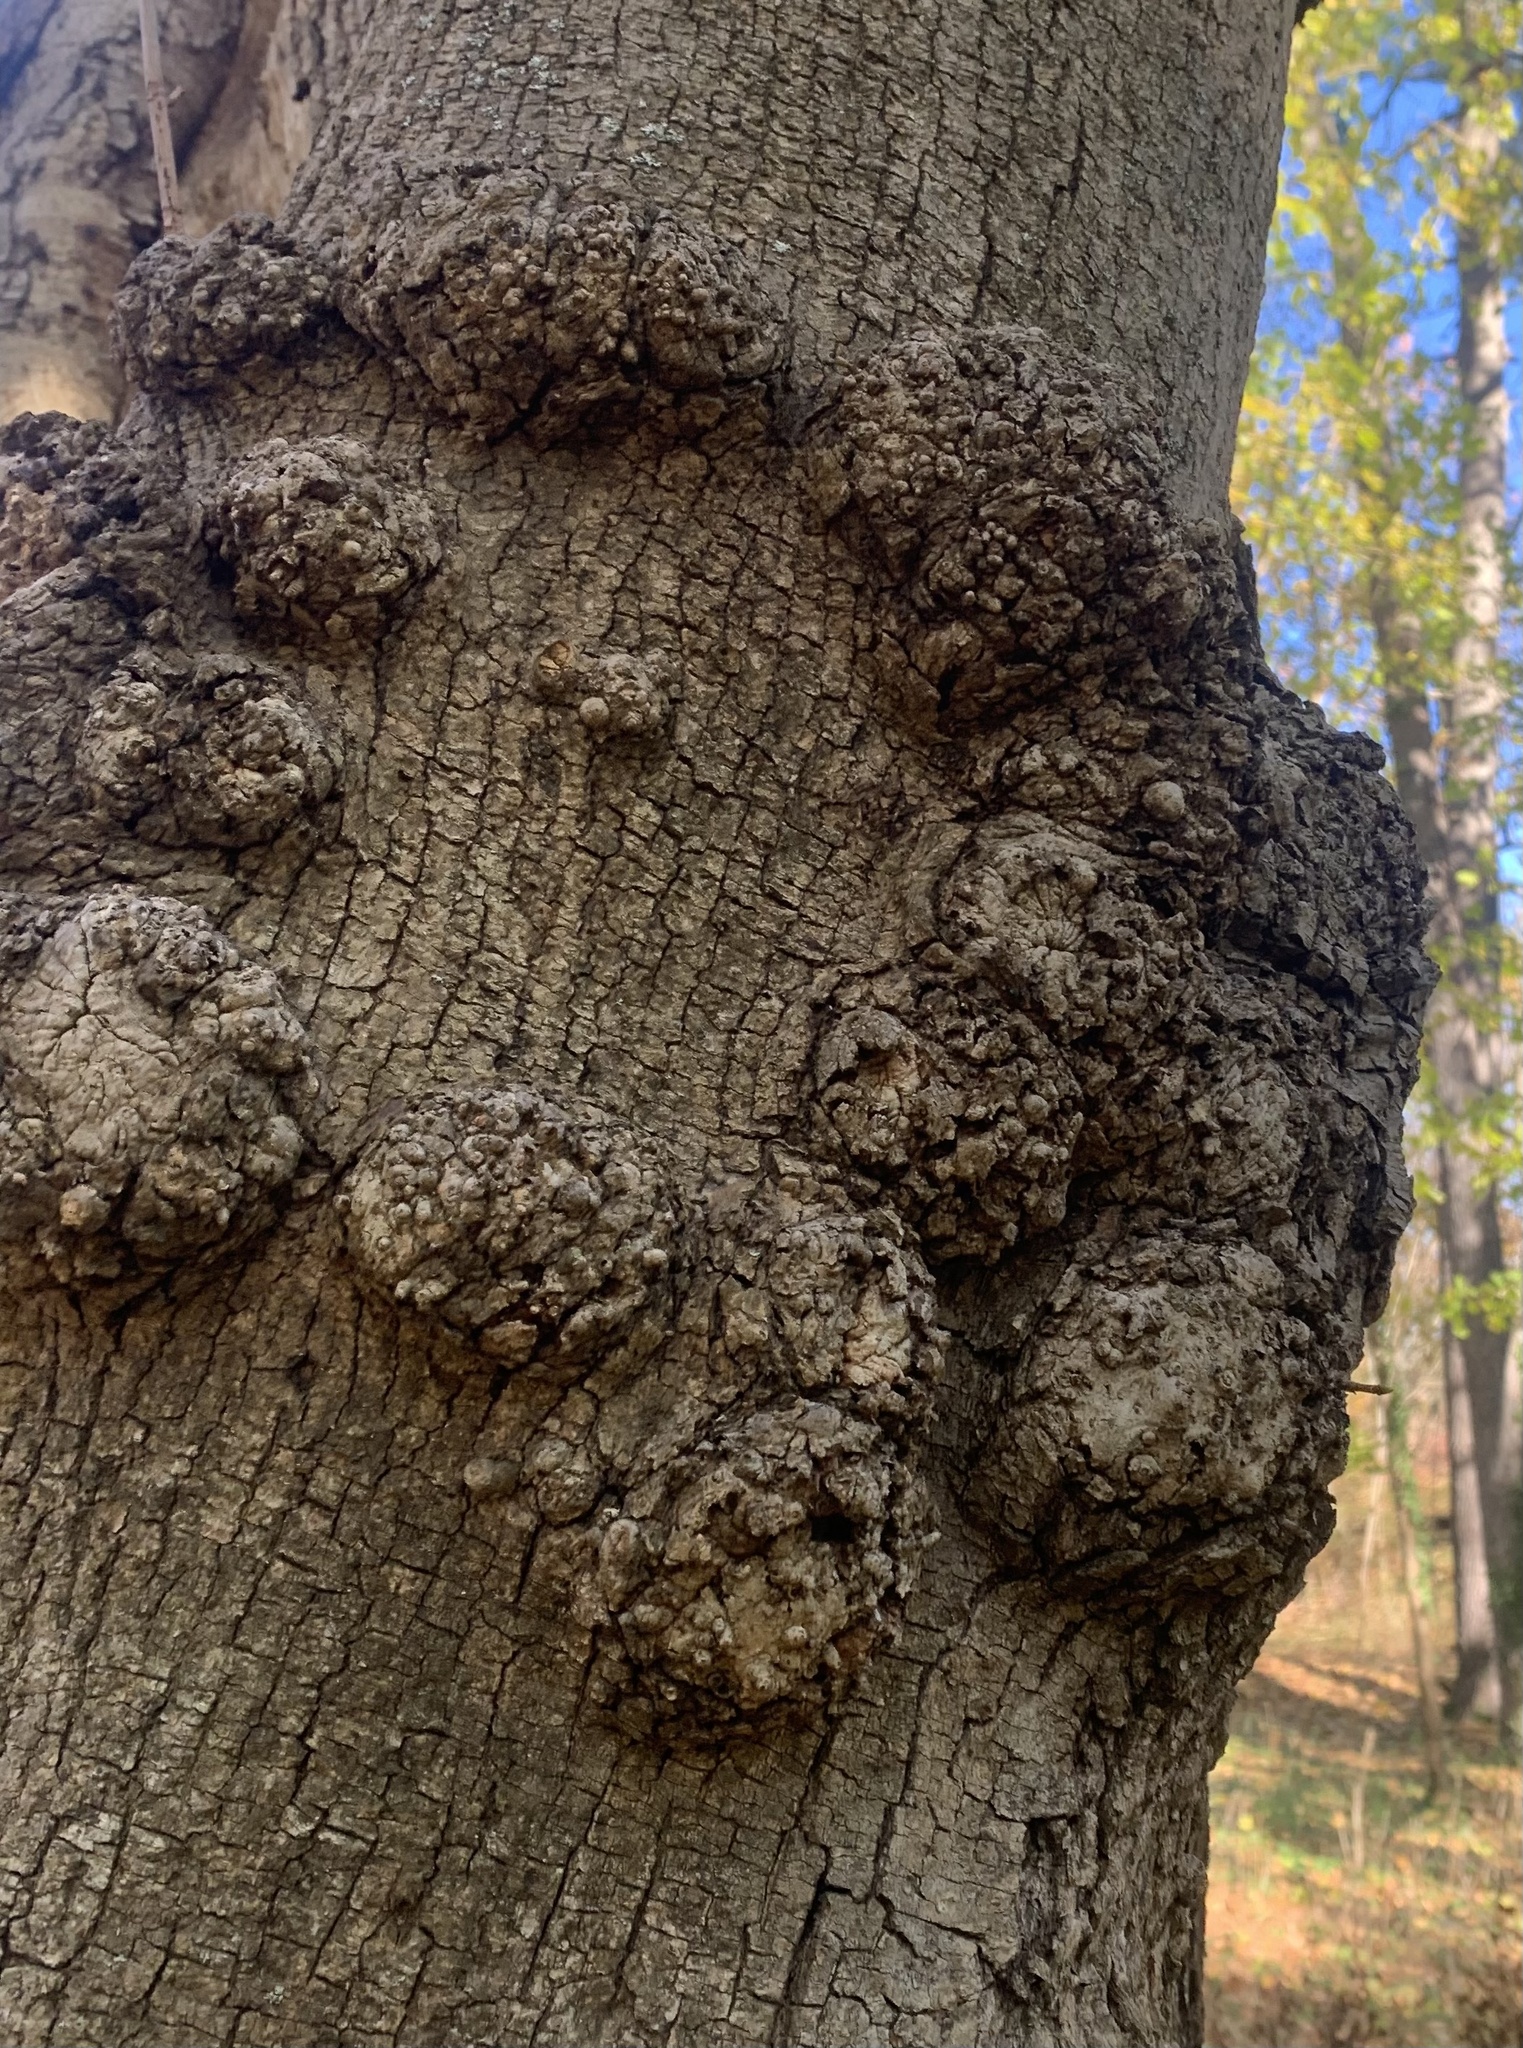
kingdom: Bacteria
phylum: Proteobacteria
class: Alphaproteobacteria
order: Rhizobiales
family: Rhizobiaceae
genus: Rhizobium
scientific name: Rhizobium Agrobacterium radiobacter
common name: Bacterial crown gall
